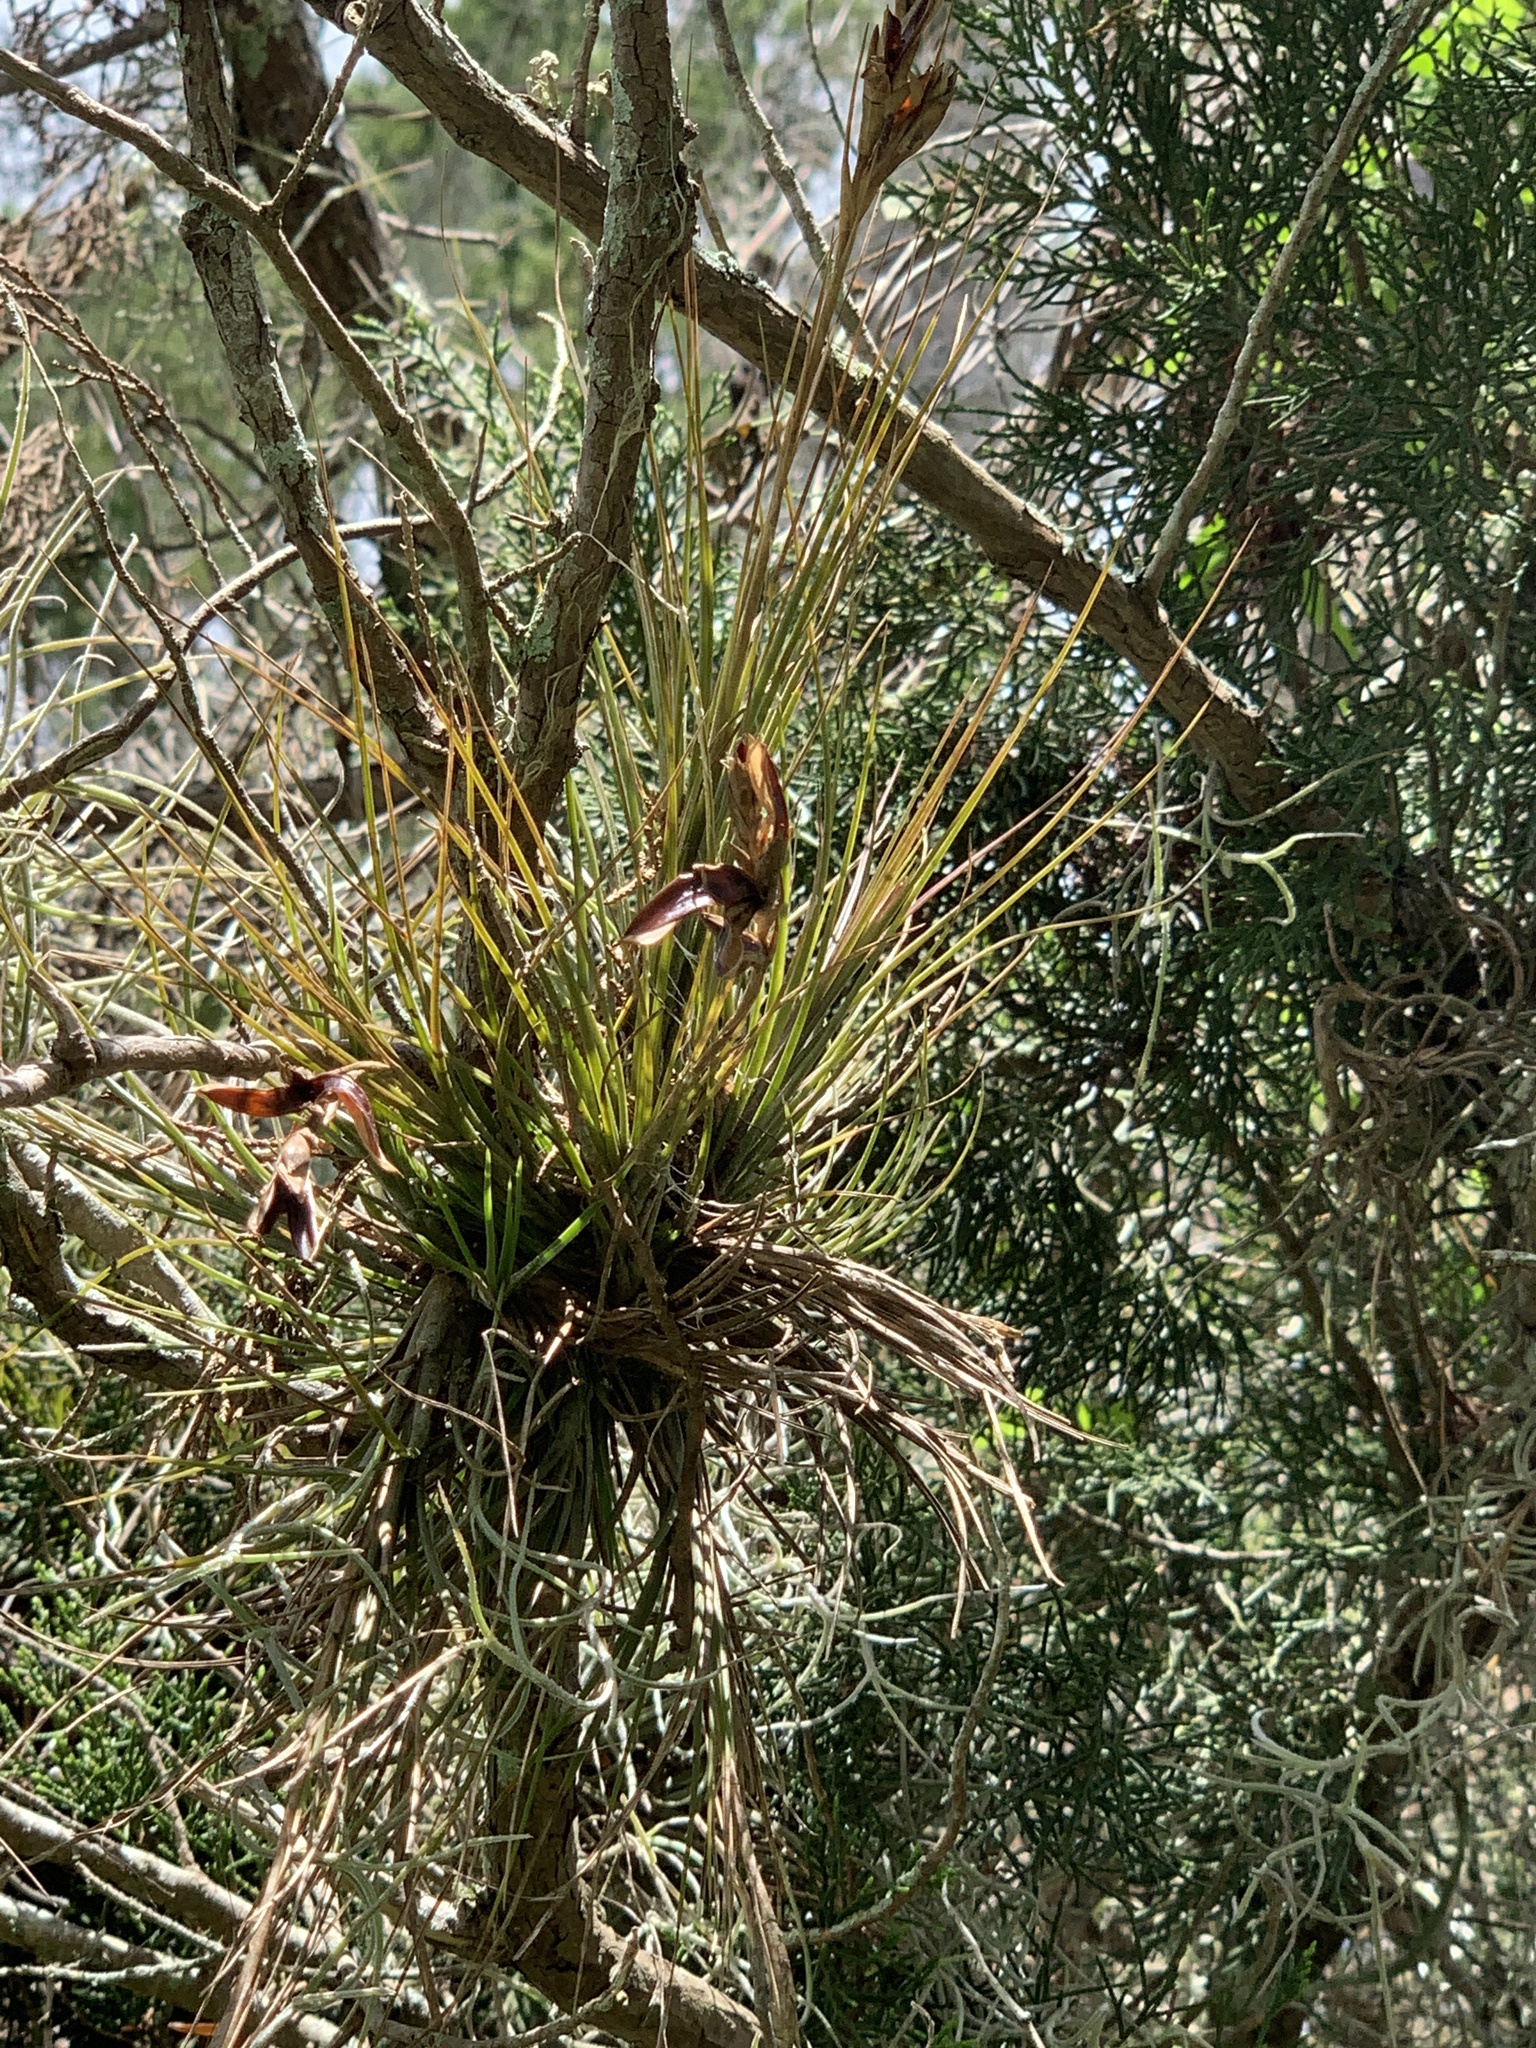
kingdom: Plantae
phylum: Tracheophyta
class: Liliopsida
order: Poales
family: Bromeliaceae
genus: Tillandsia
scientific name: Tillandsia setacea
